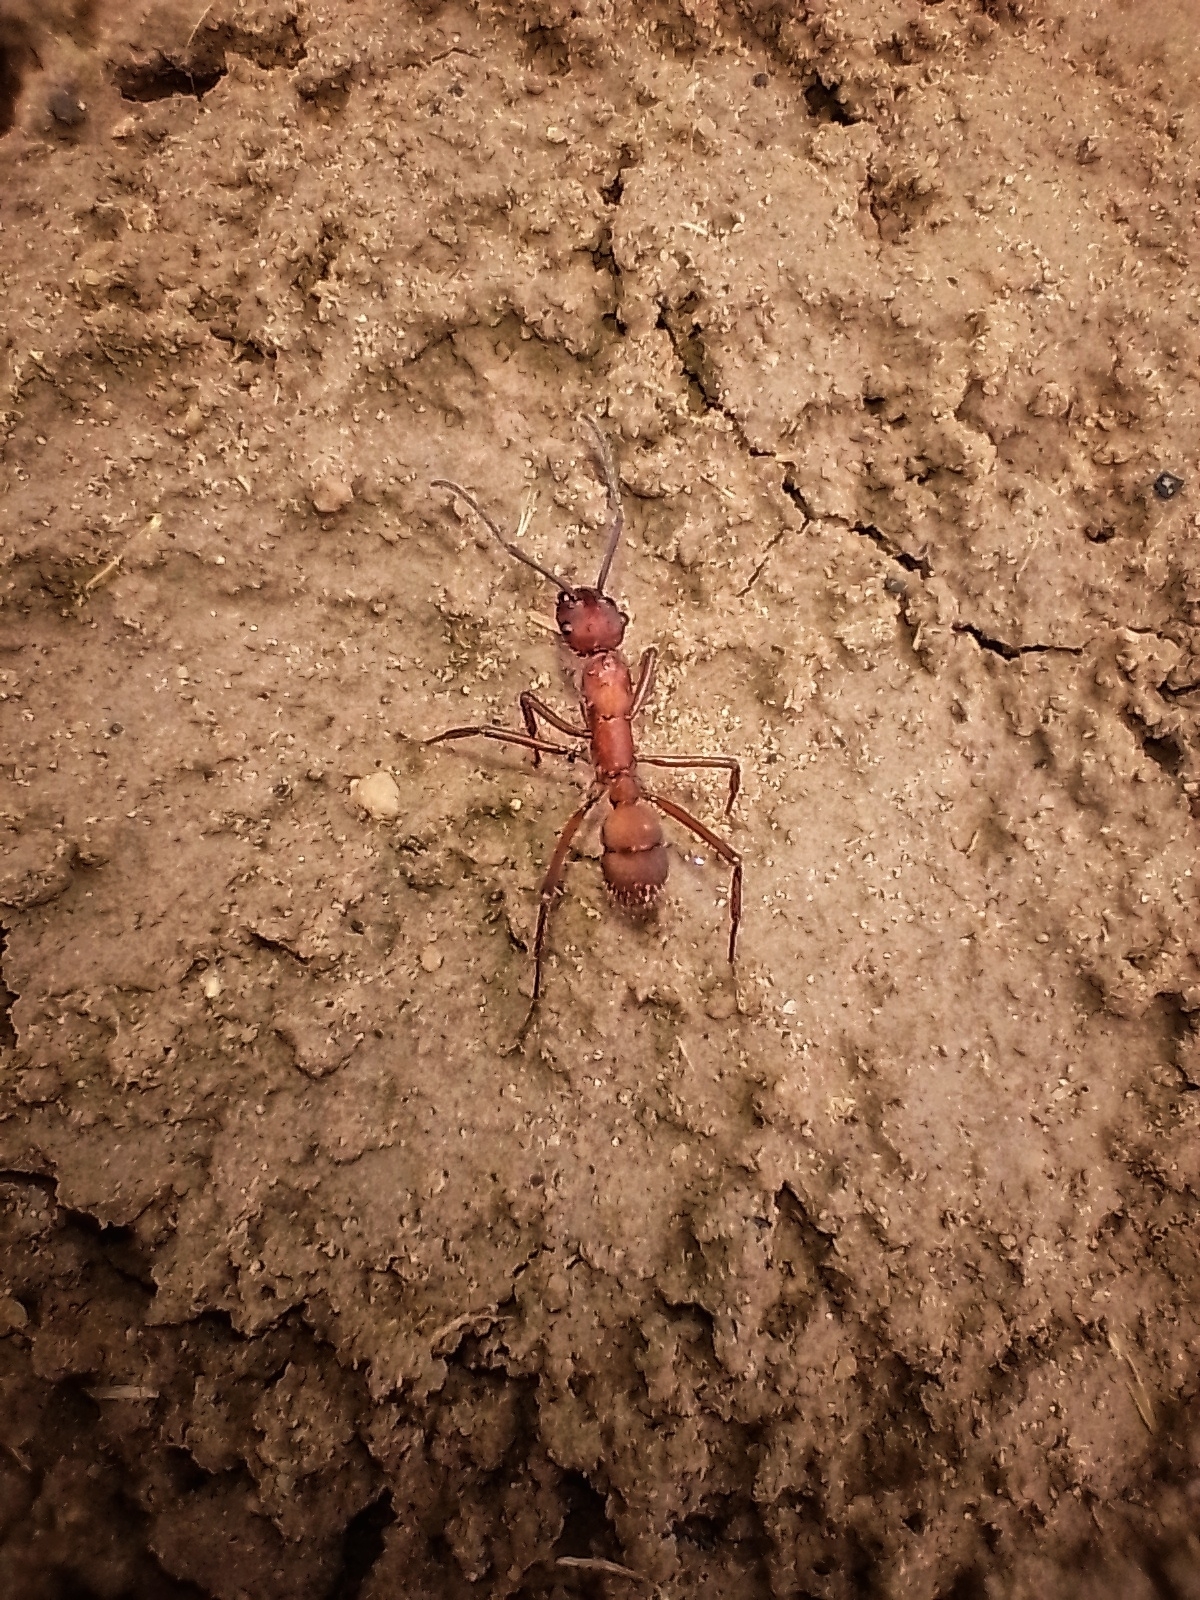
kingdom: Animalia
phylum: Arthropoda
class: Insecta
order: Hymenoptera
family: Formicidae
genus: Ectatomma
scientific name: Ectatomma opaciventre
